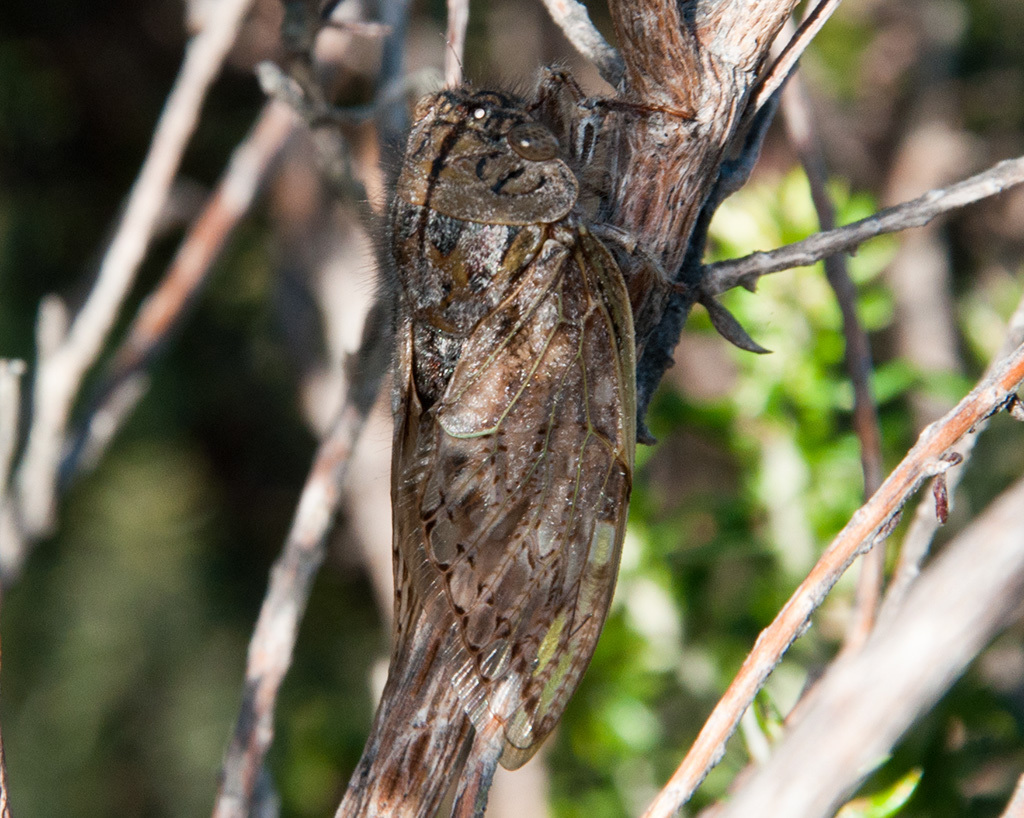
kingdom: Animalia
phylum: Arthropoda
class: Insecta
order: Hemiptera
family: Cicadidae
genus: Platypleura
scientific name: Platypleura capensis
